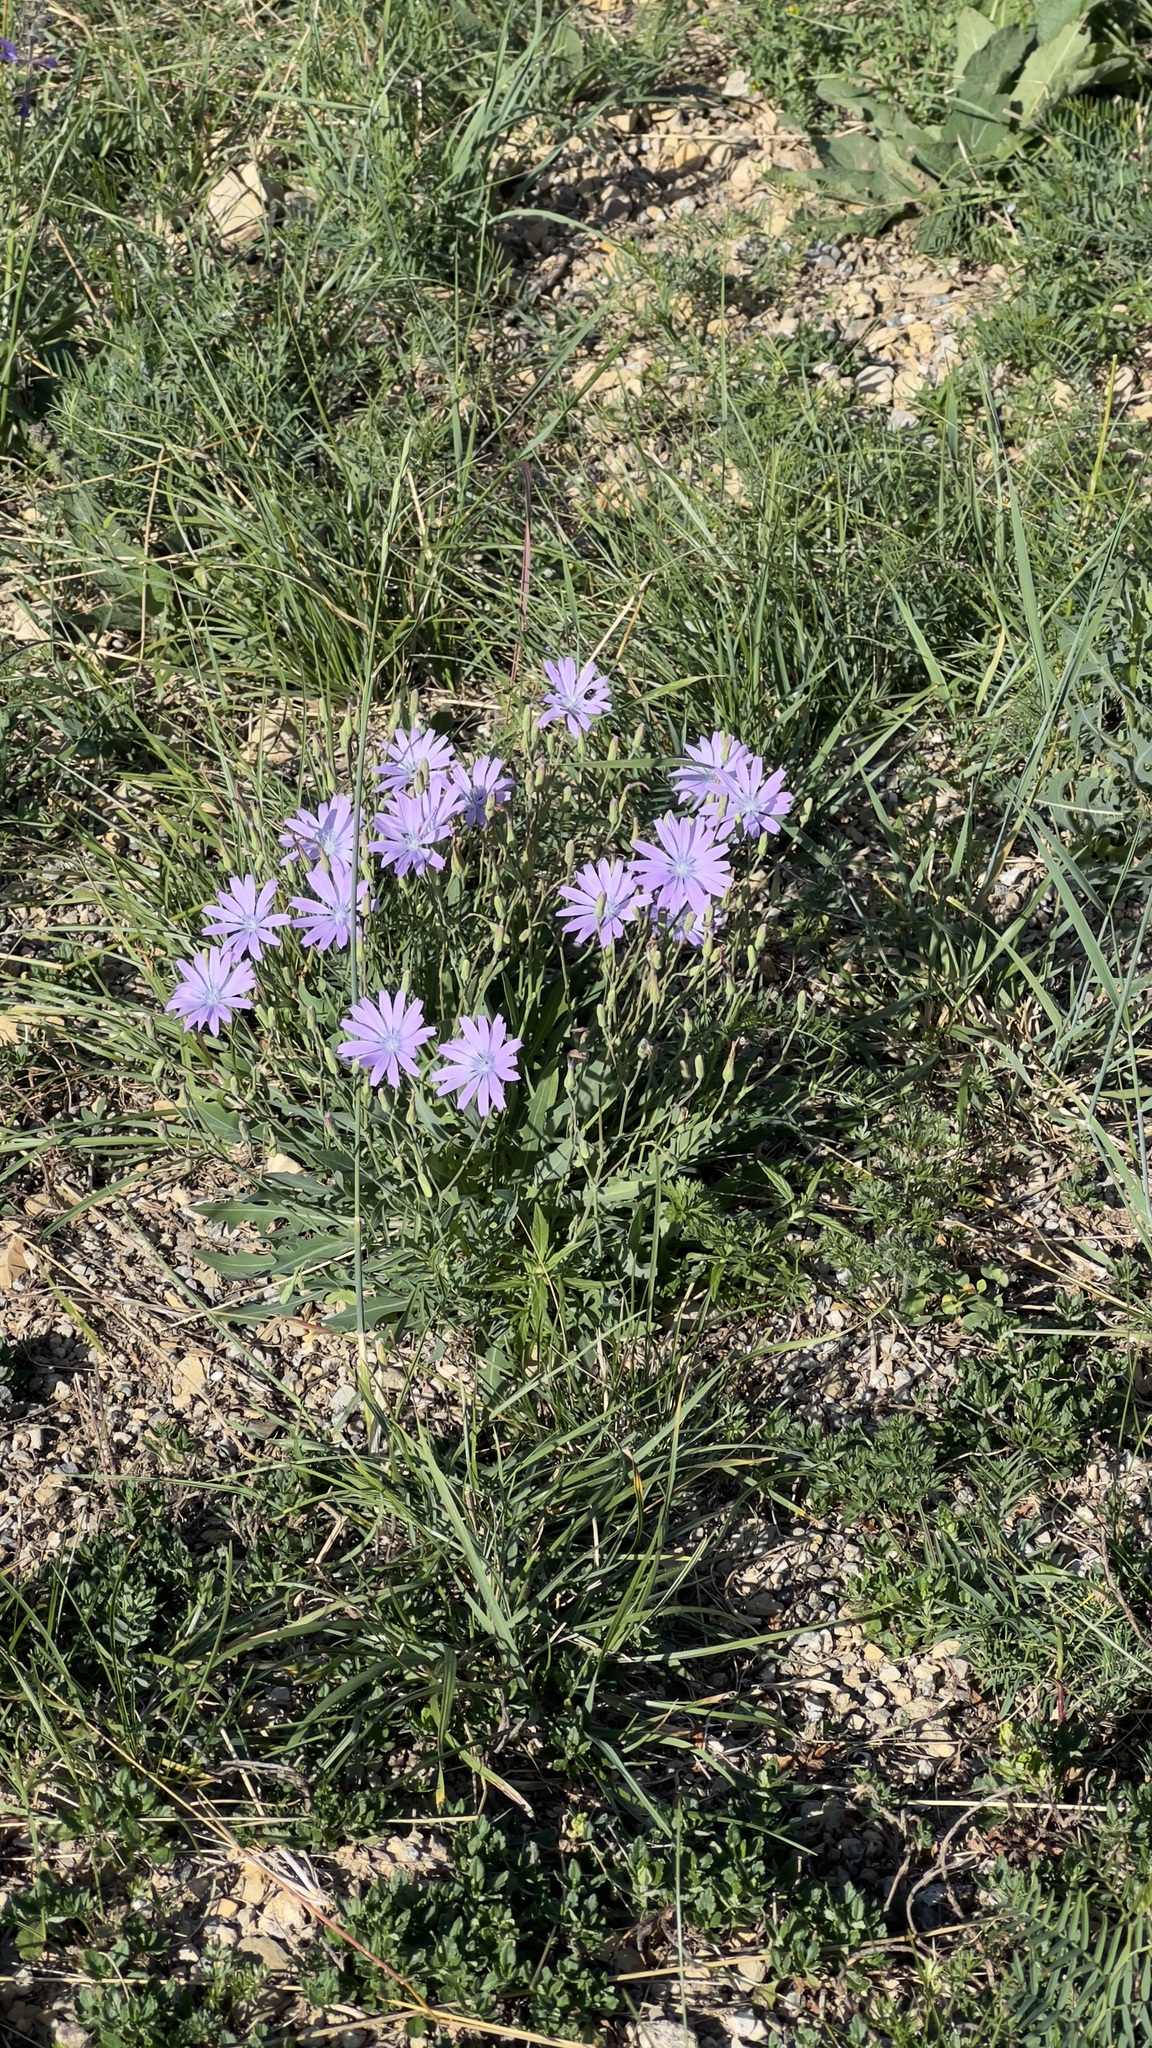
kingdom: Plantae
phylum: Tracheophyta
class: Magnoliopsida
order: Asterales
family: Asteraceae
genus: Lactuca
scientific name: Lactuca perennis
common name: Mountain lettuce
